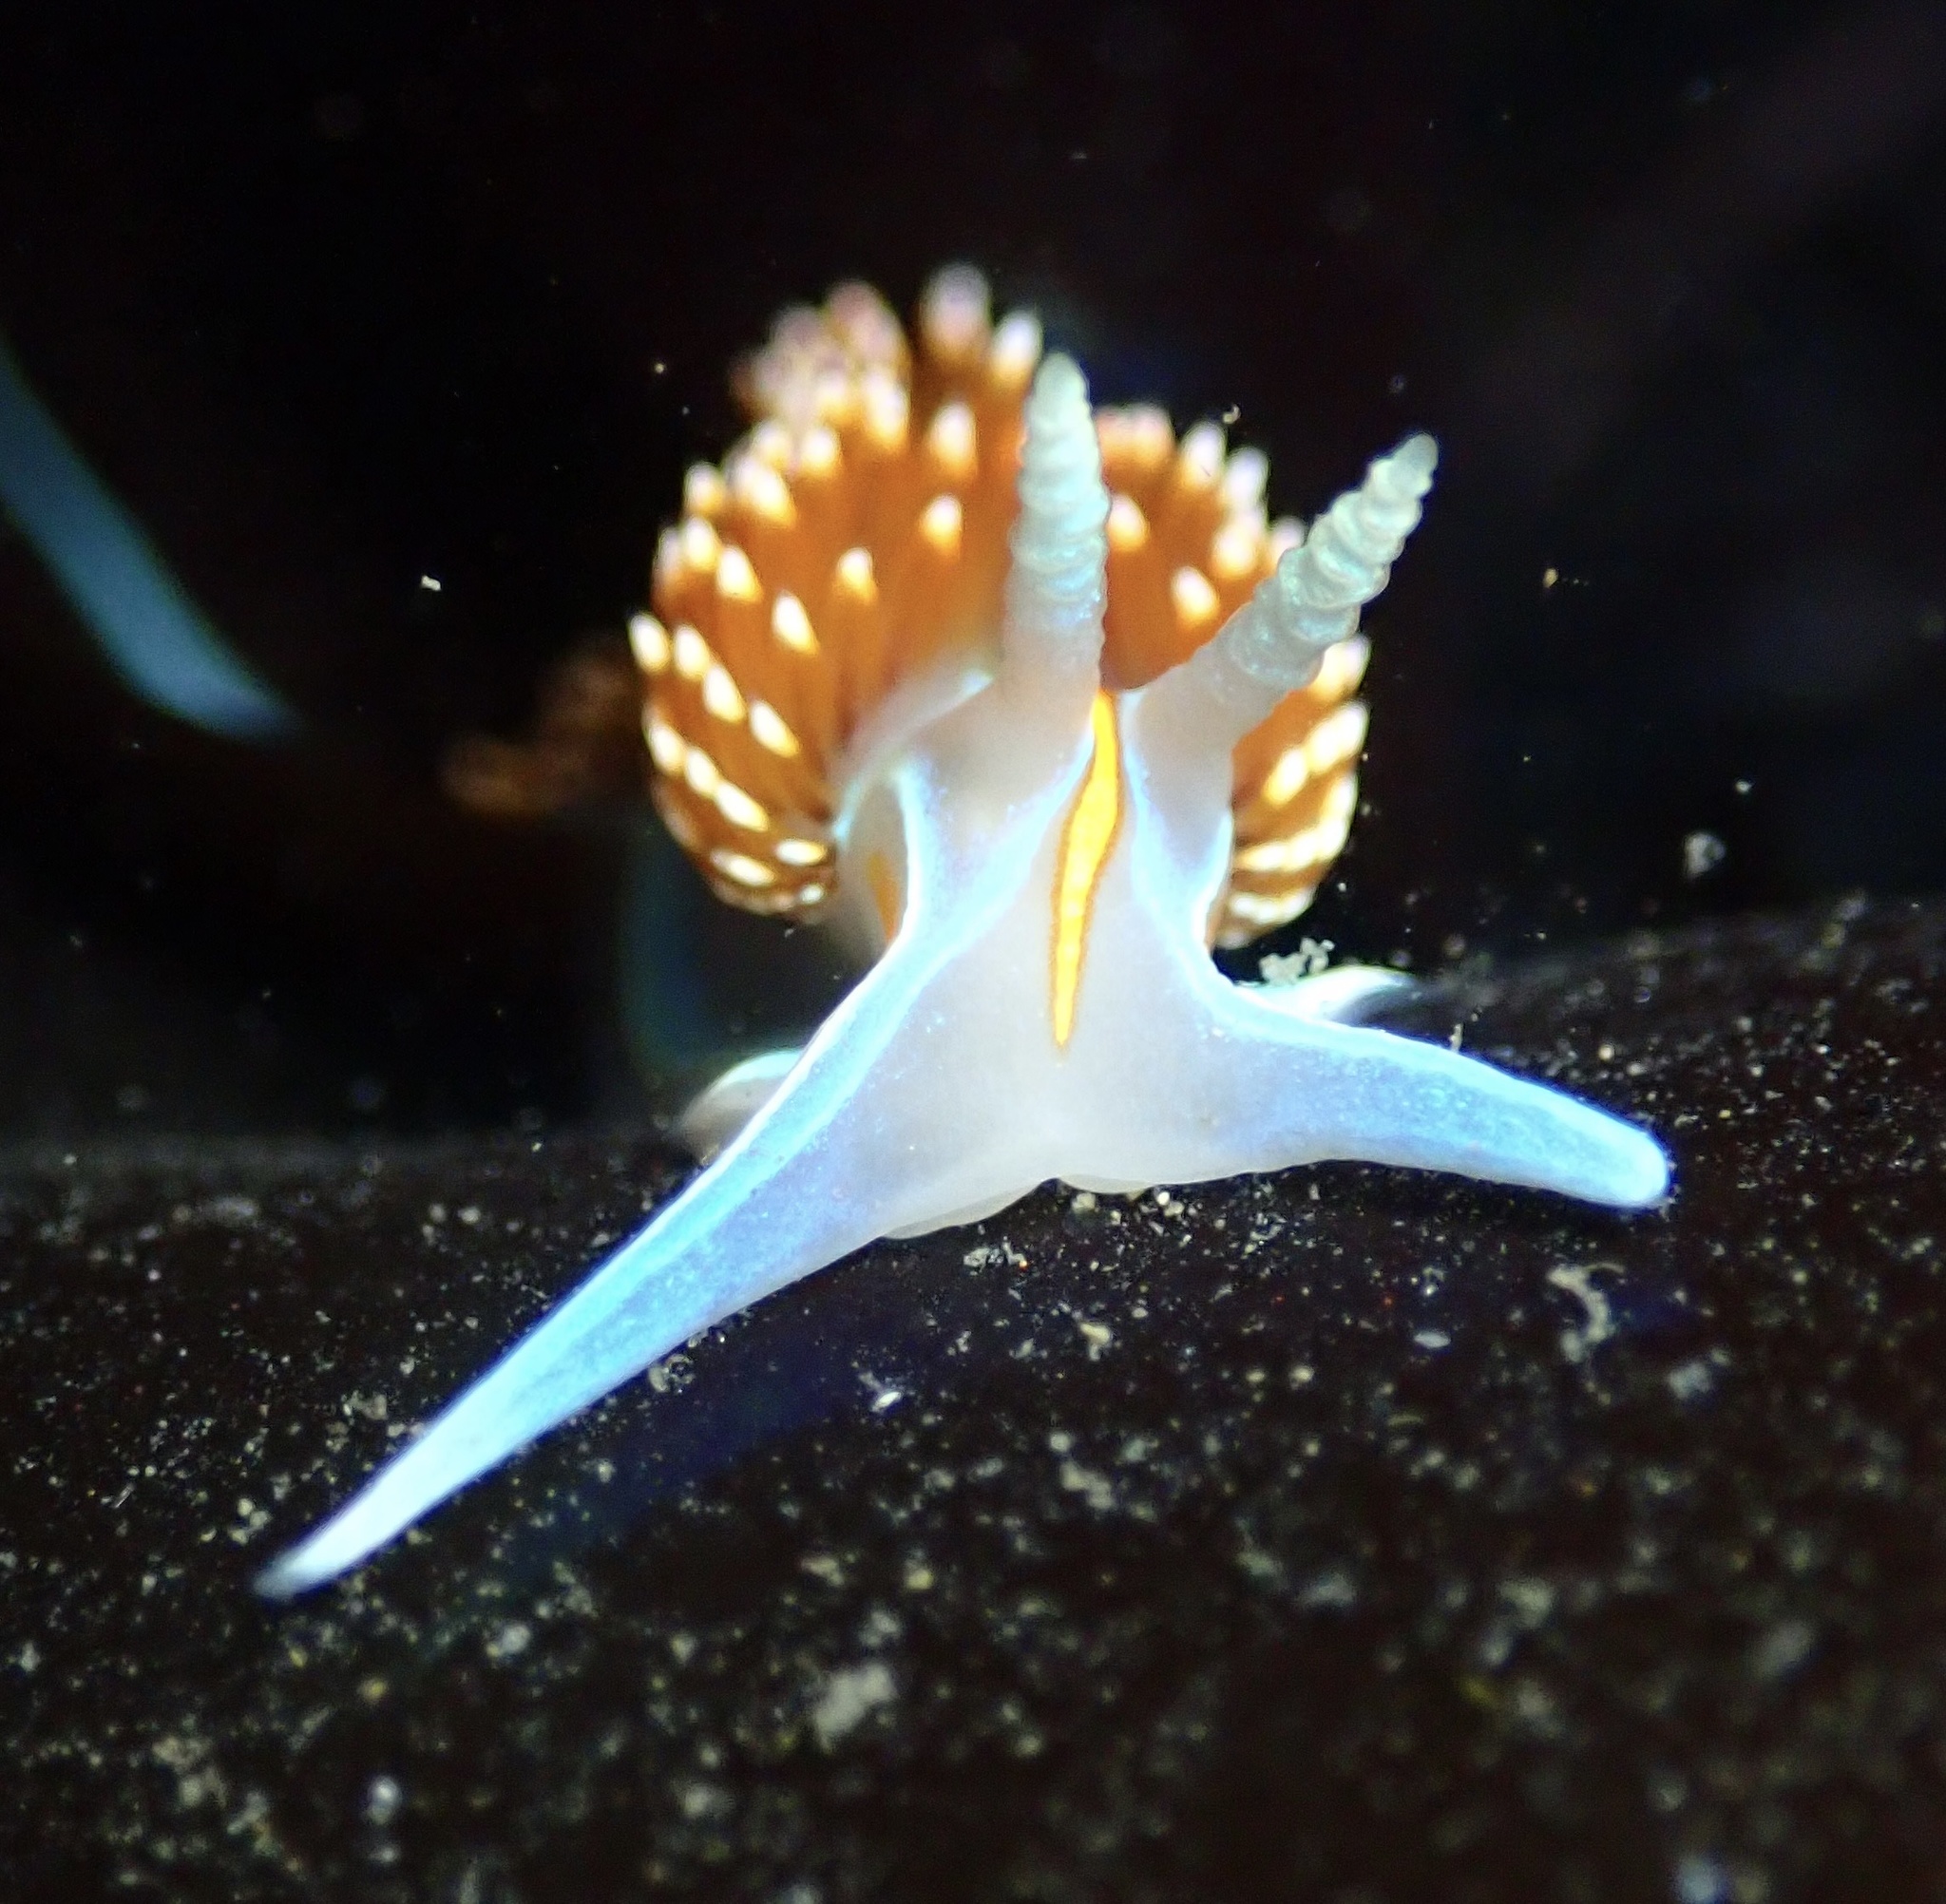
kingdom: Animalia
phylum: Mollusca
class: Gastropoda
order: Nudibranchia
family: Myrrhinidae
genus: Hermissenda
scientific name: Hermissenda opalescens
